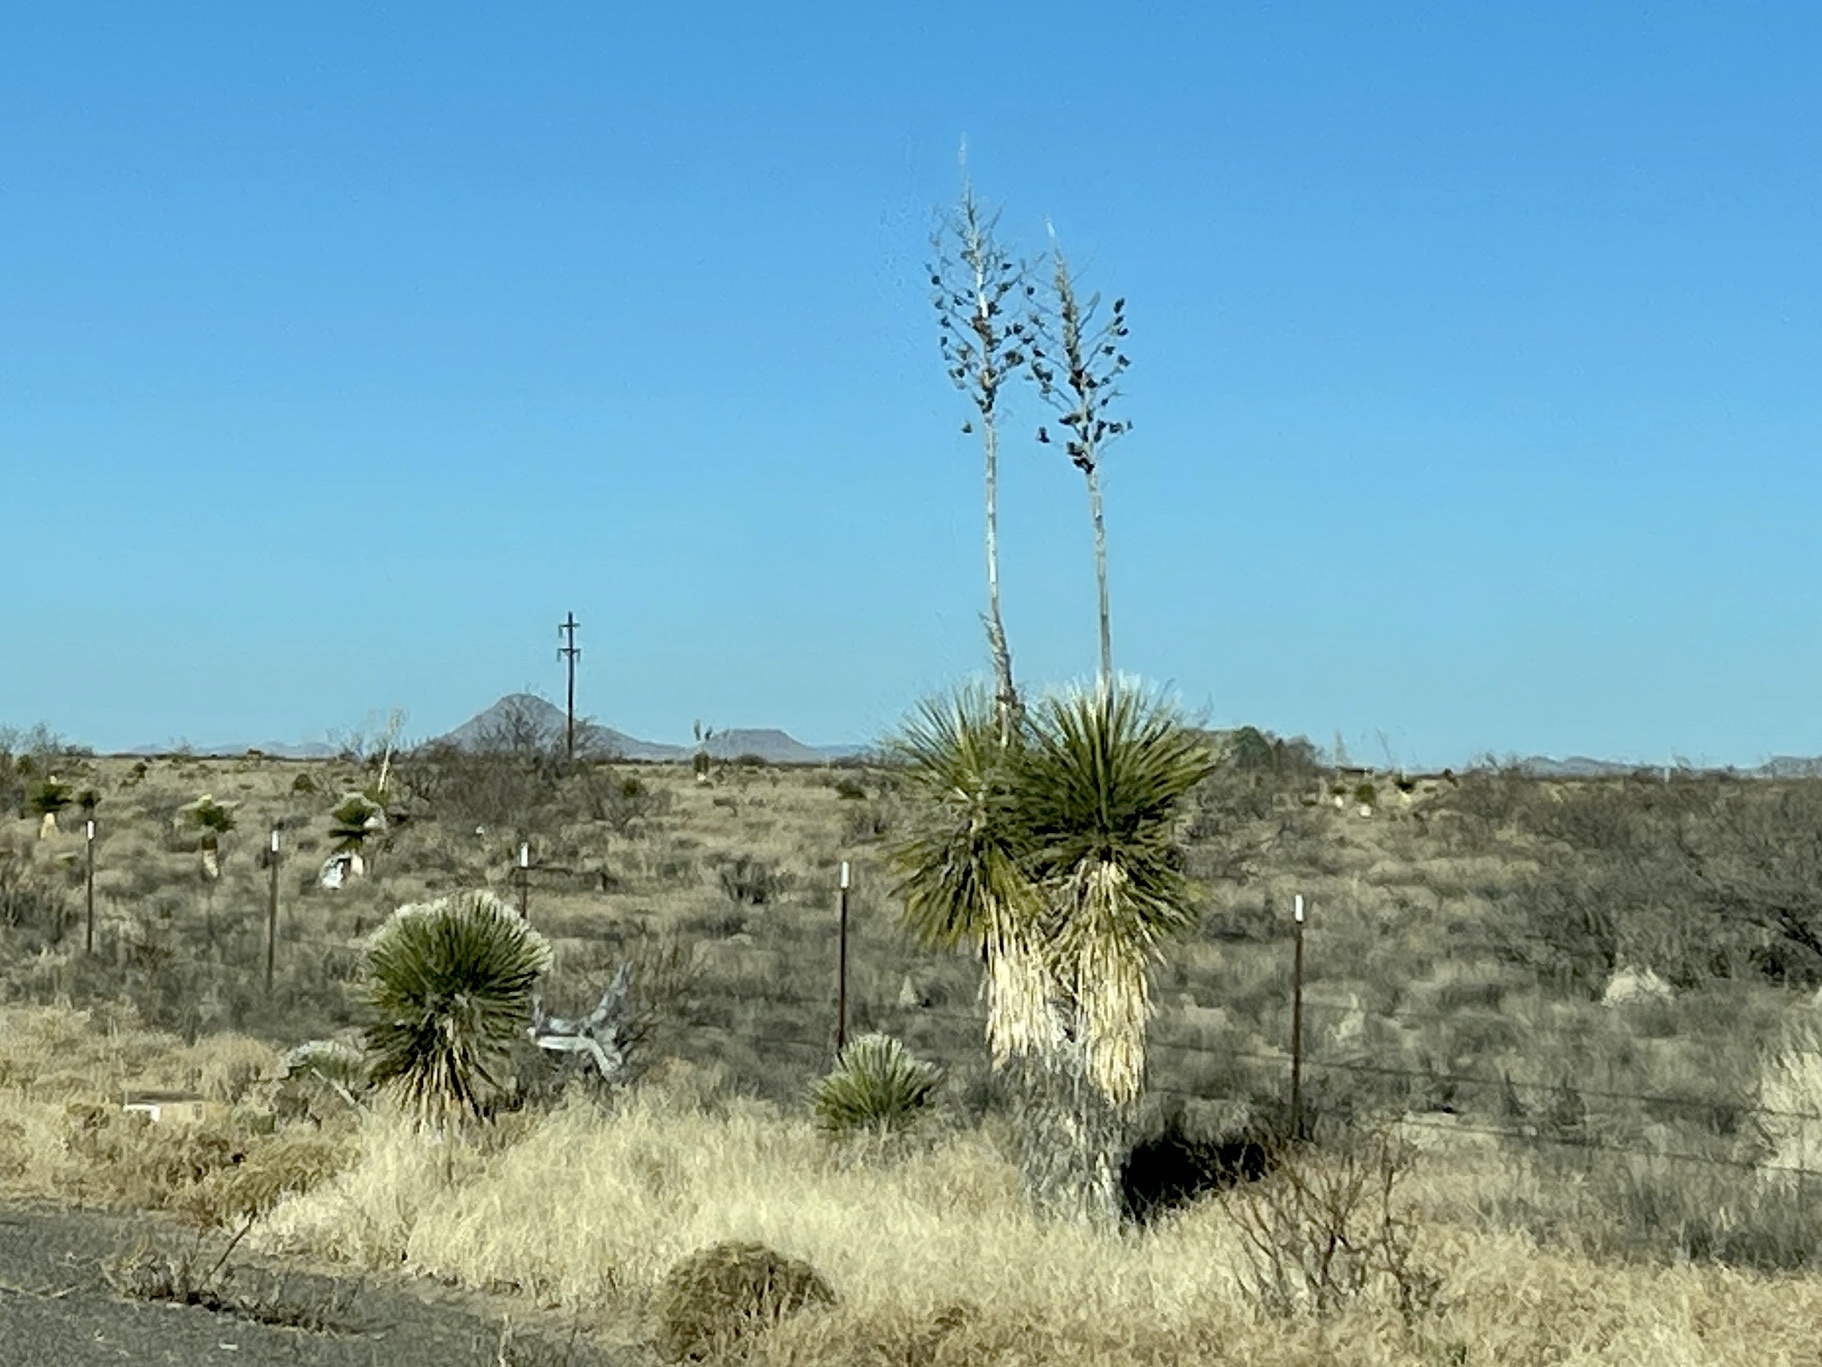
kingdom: Plantae
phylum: Tracheophyta
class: Liliopsida
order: Asparagales
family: Asparagaceae
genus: Yucca
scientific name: Yucca elata
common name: Palmella
